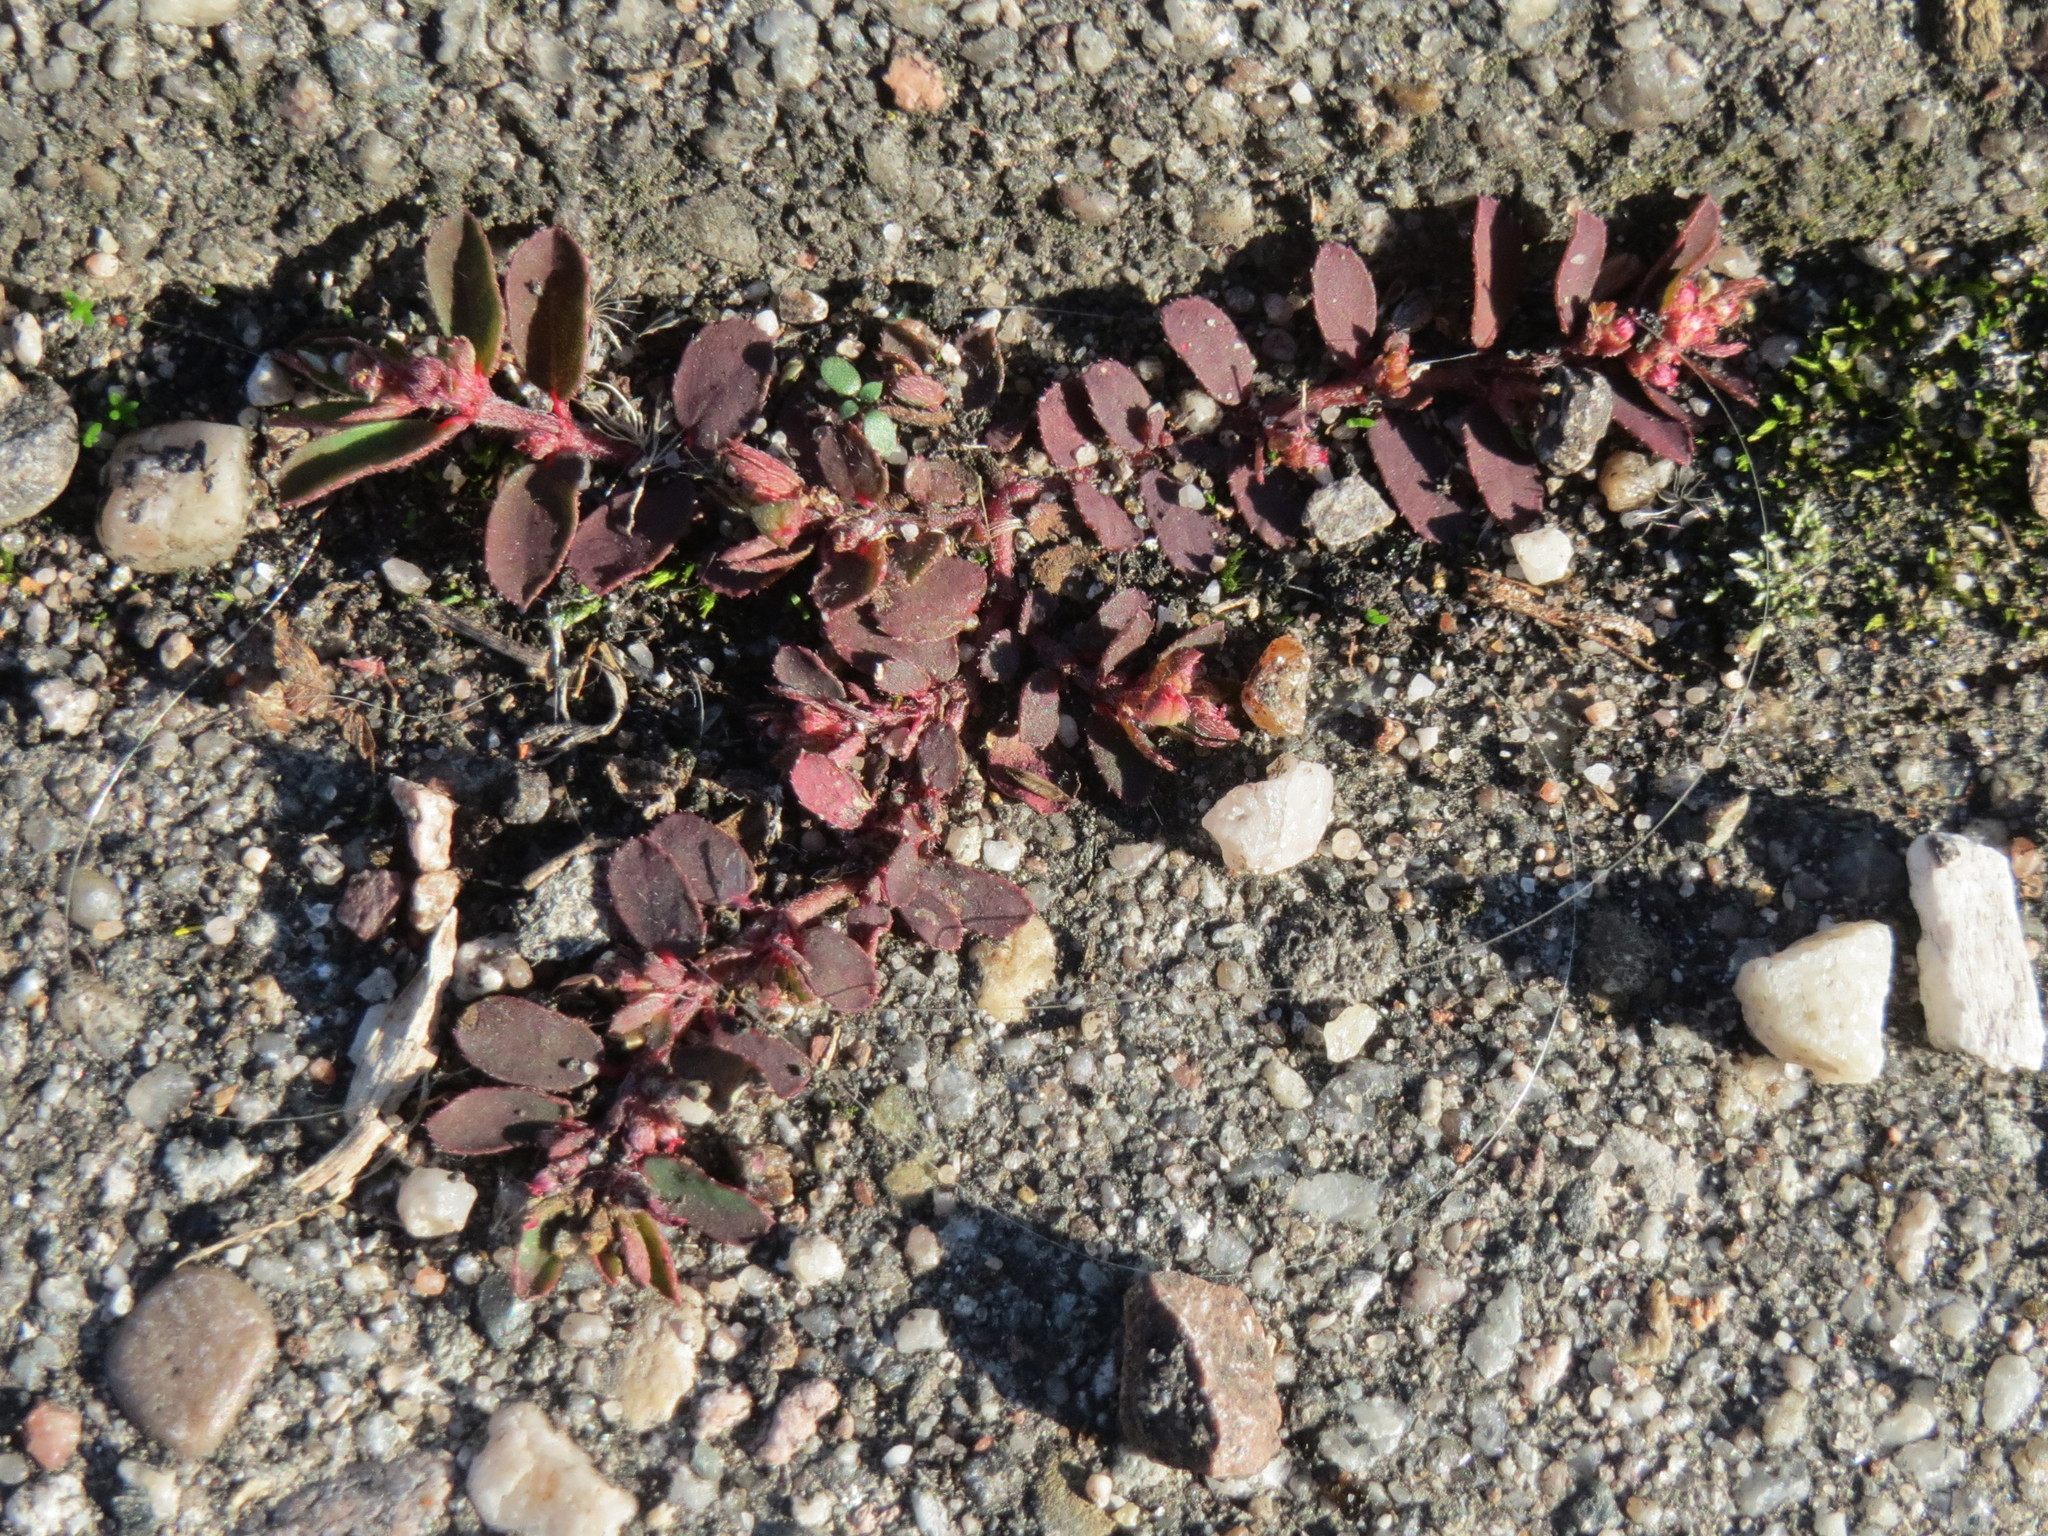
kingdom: Plantae
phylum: Tracheophyta
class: Magnoliopsida
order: Malpighiales
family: Euphorbiaceae
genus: Euphorbia
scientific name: Euphorbia maculata
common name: Spotted spurge
